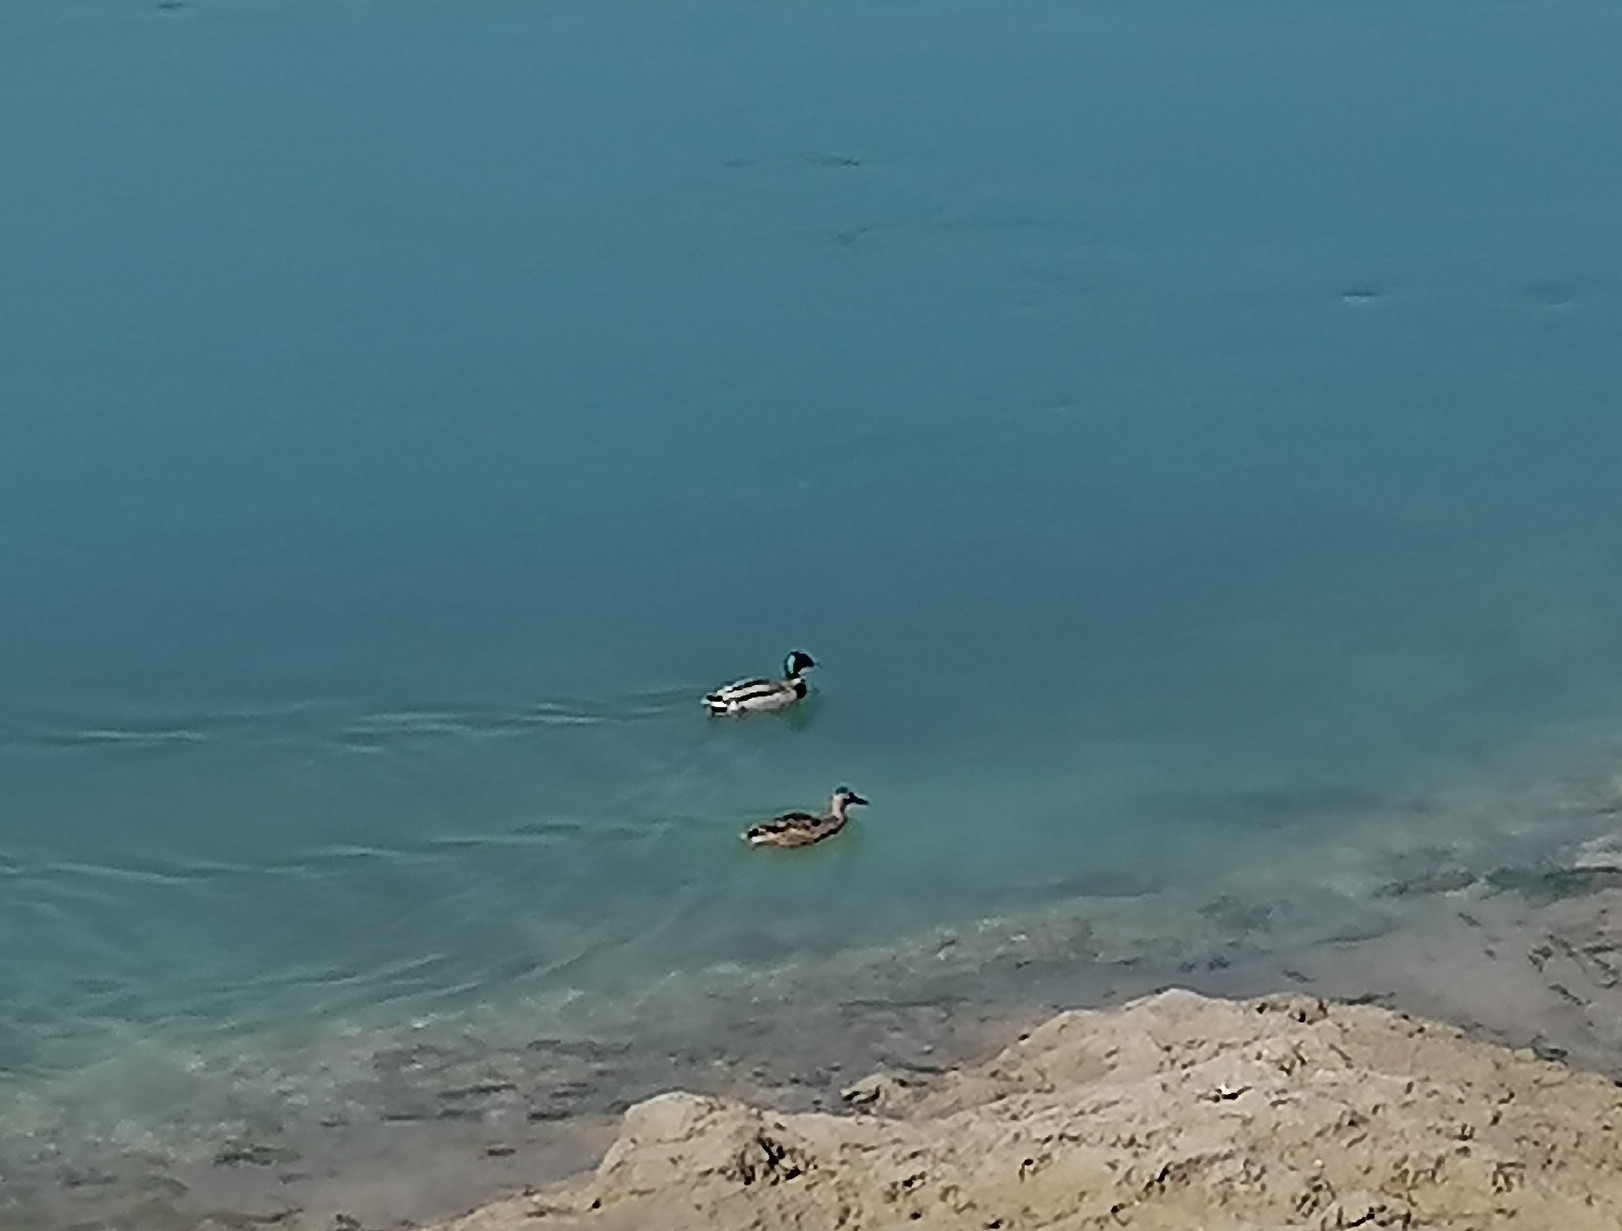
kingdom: Animalia
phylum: Chordata
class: Aves
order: Anseriformes
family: Anatidae
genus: Anas
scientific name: Anas platyrhynchos
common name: Mallard
